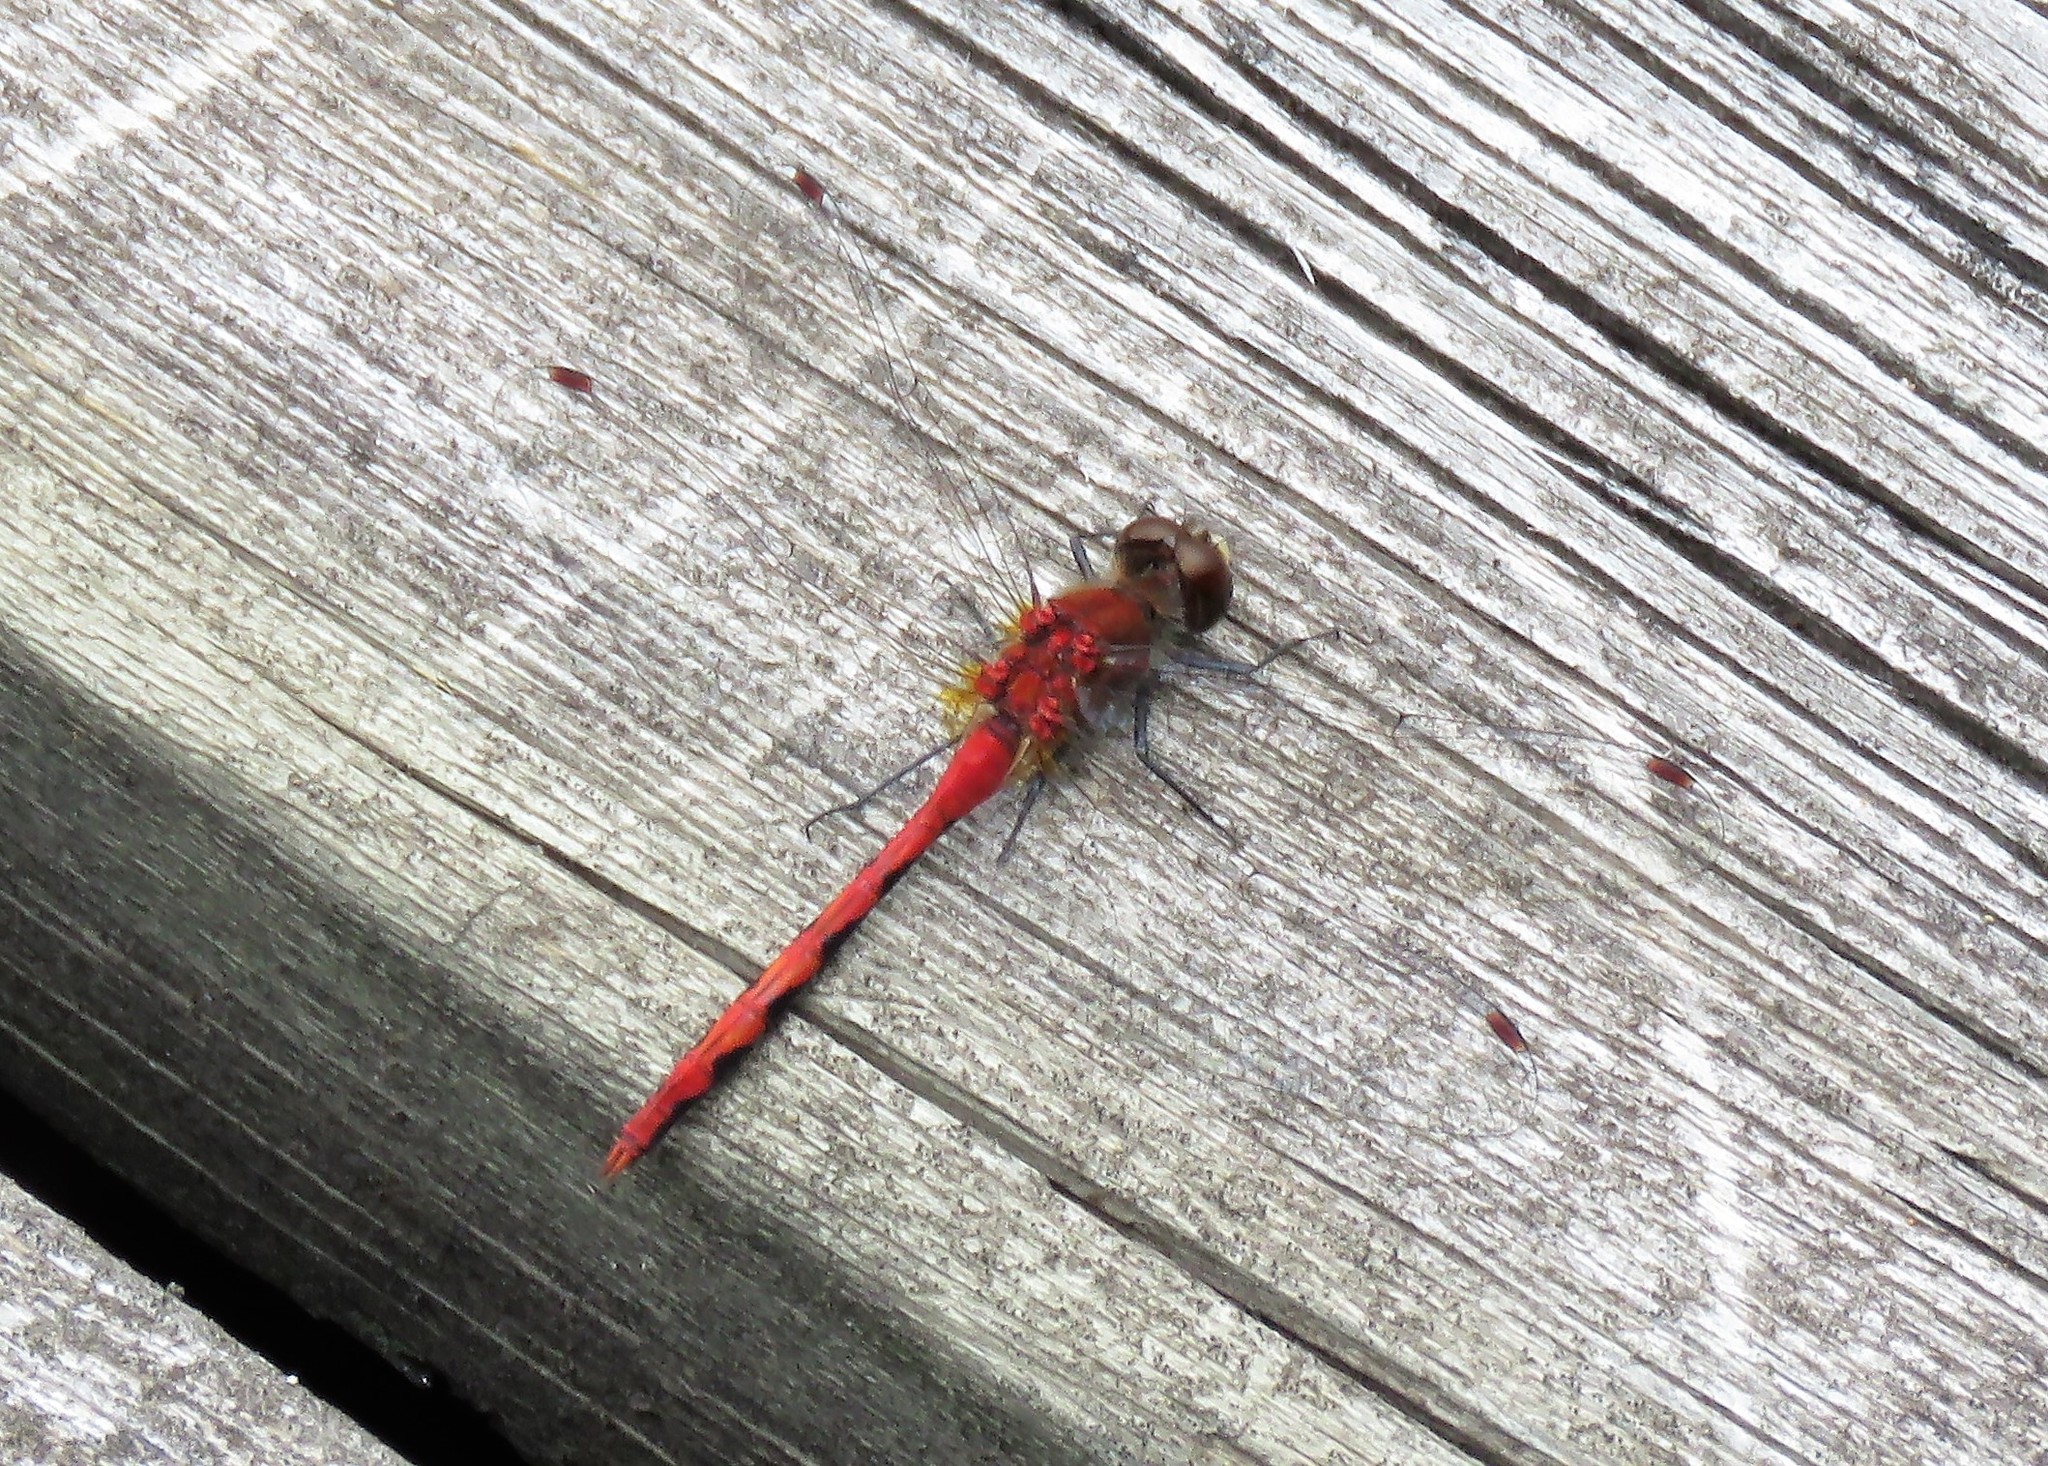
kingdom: Animalia
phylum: Arthropoda
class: Insecta
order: Odonata
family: Libellulidae
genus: Sympetrum
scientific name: Sympetrum obtrusum
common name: White-faced meadowhawk
